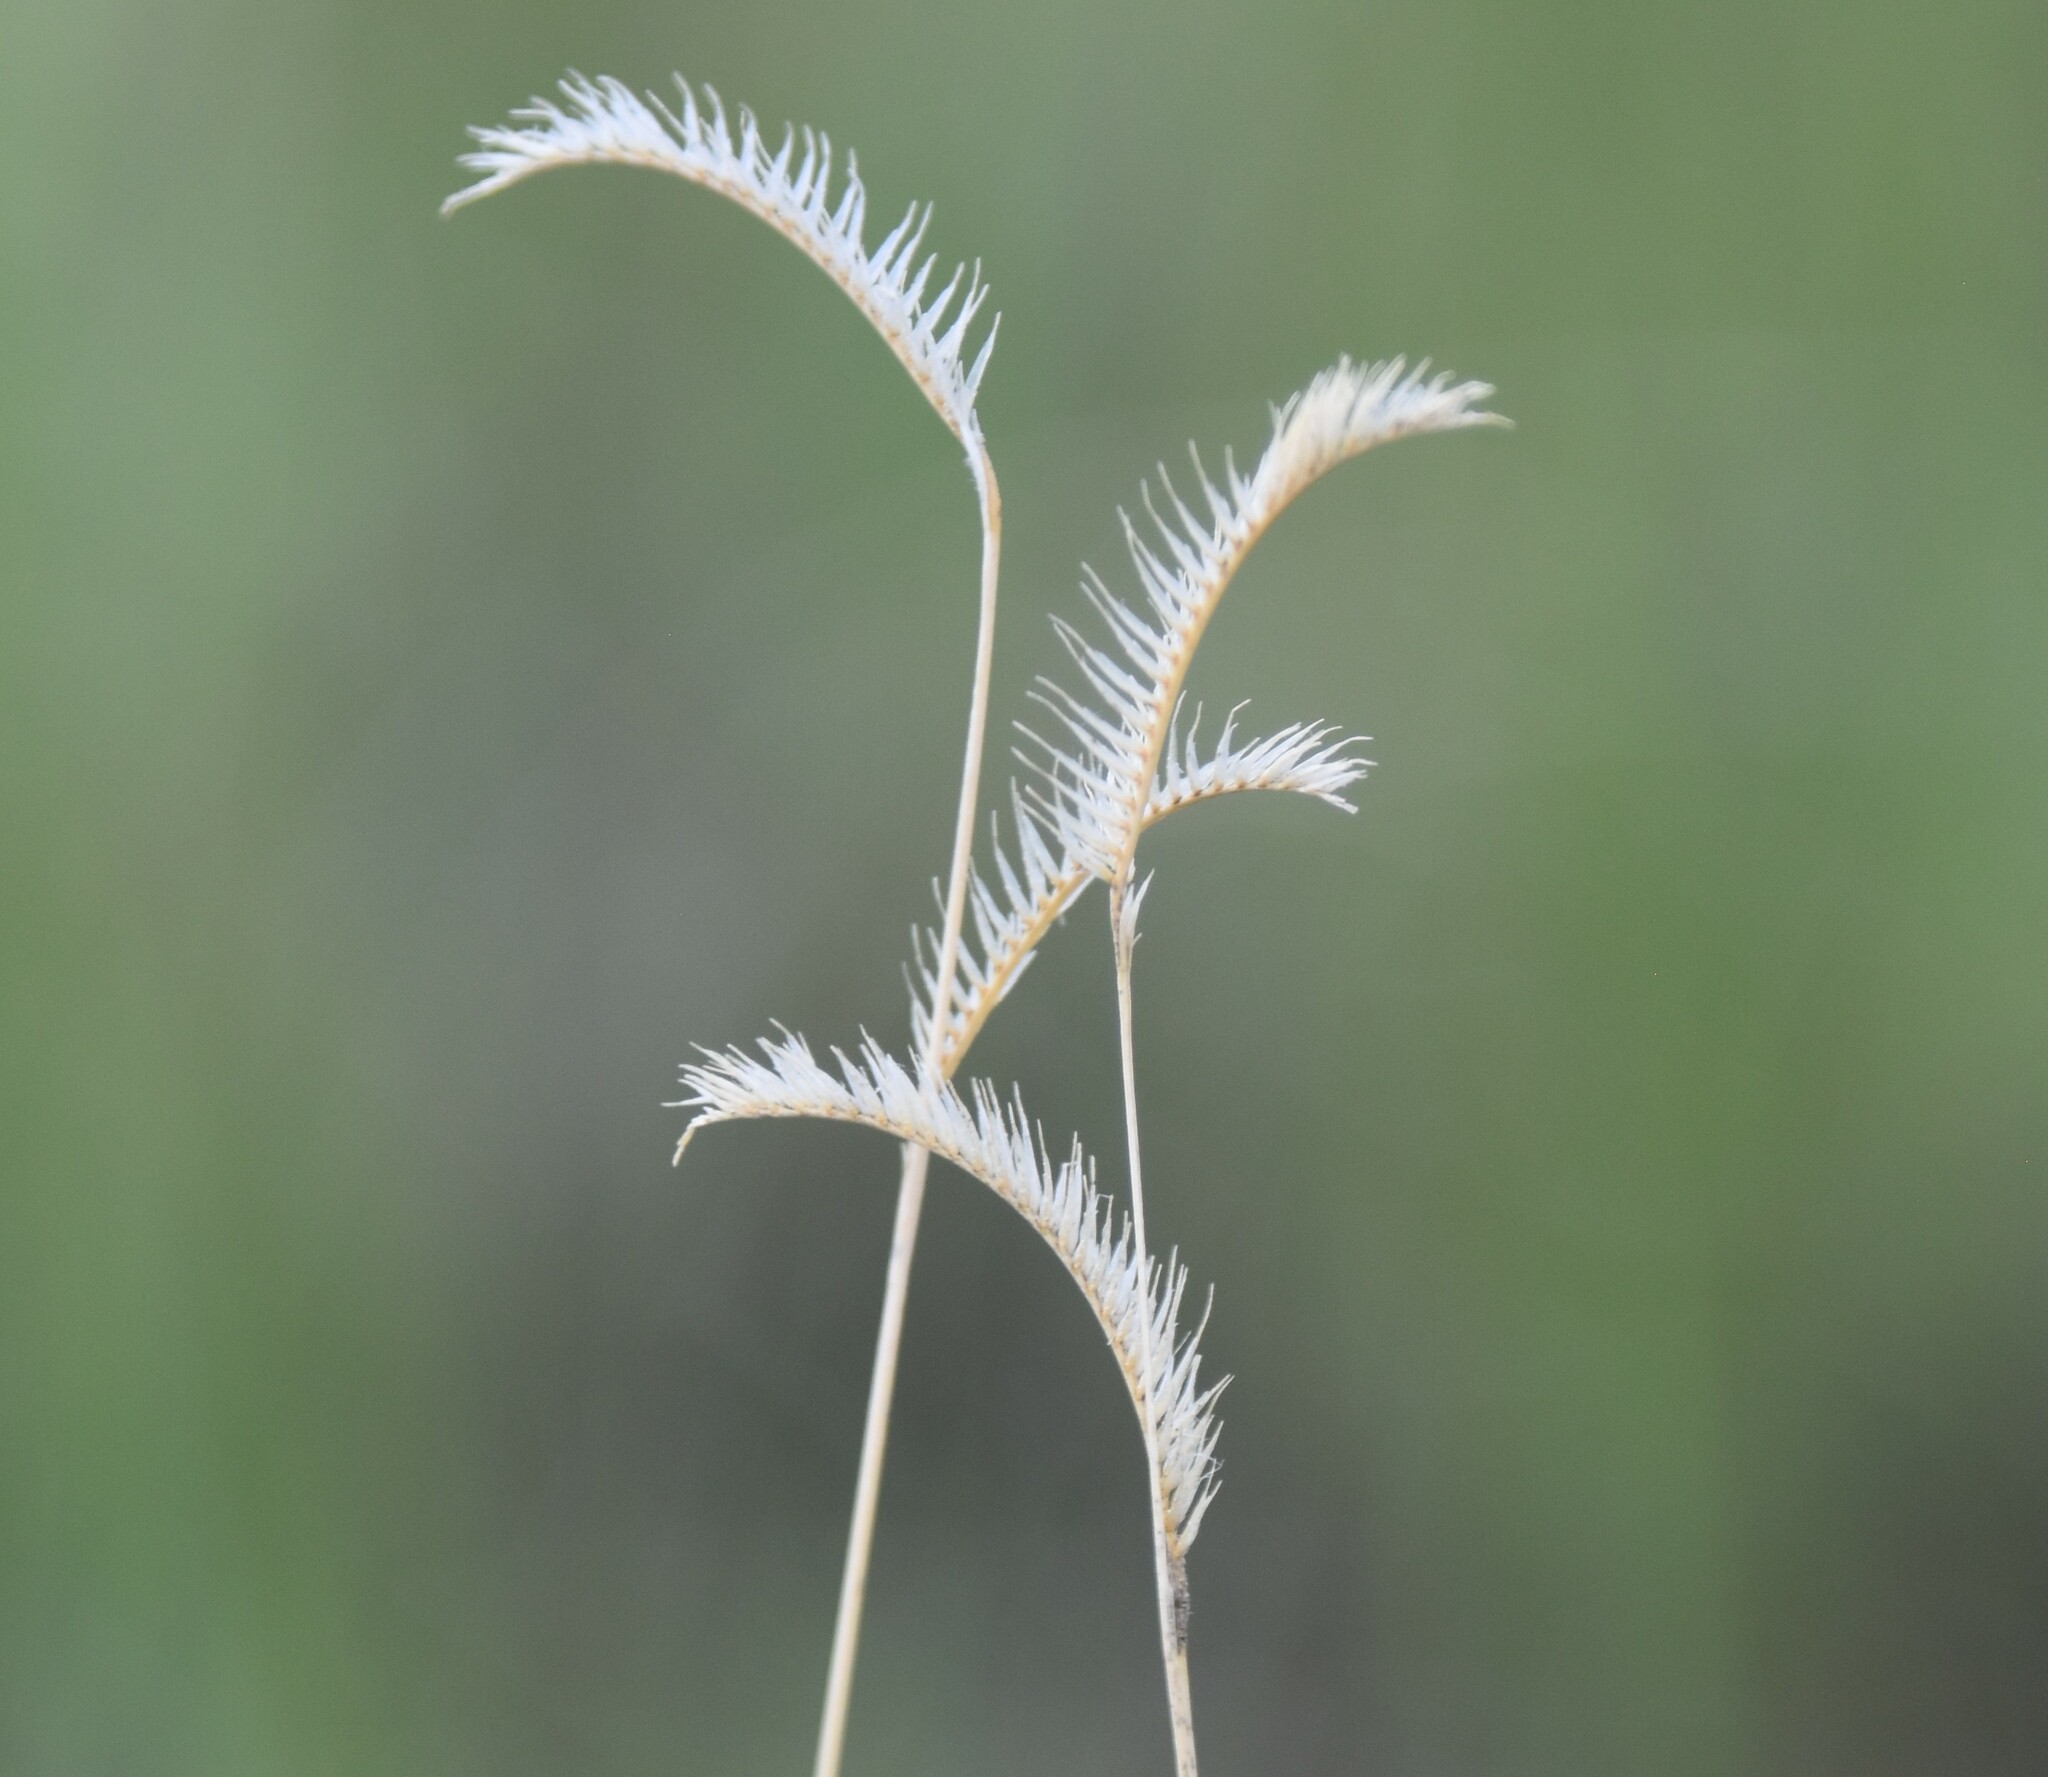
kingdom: Plantae
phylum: Tracheophyta
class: Liliopsida
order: Poales
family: Poaceae
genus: Bouteloua
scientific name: Bouteloua gracilis
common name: Blue grama
